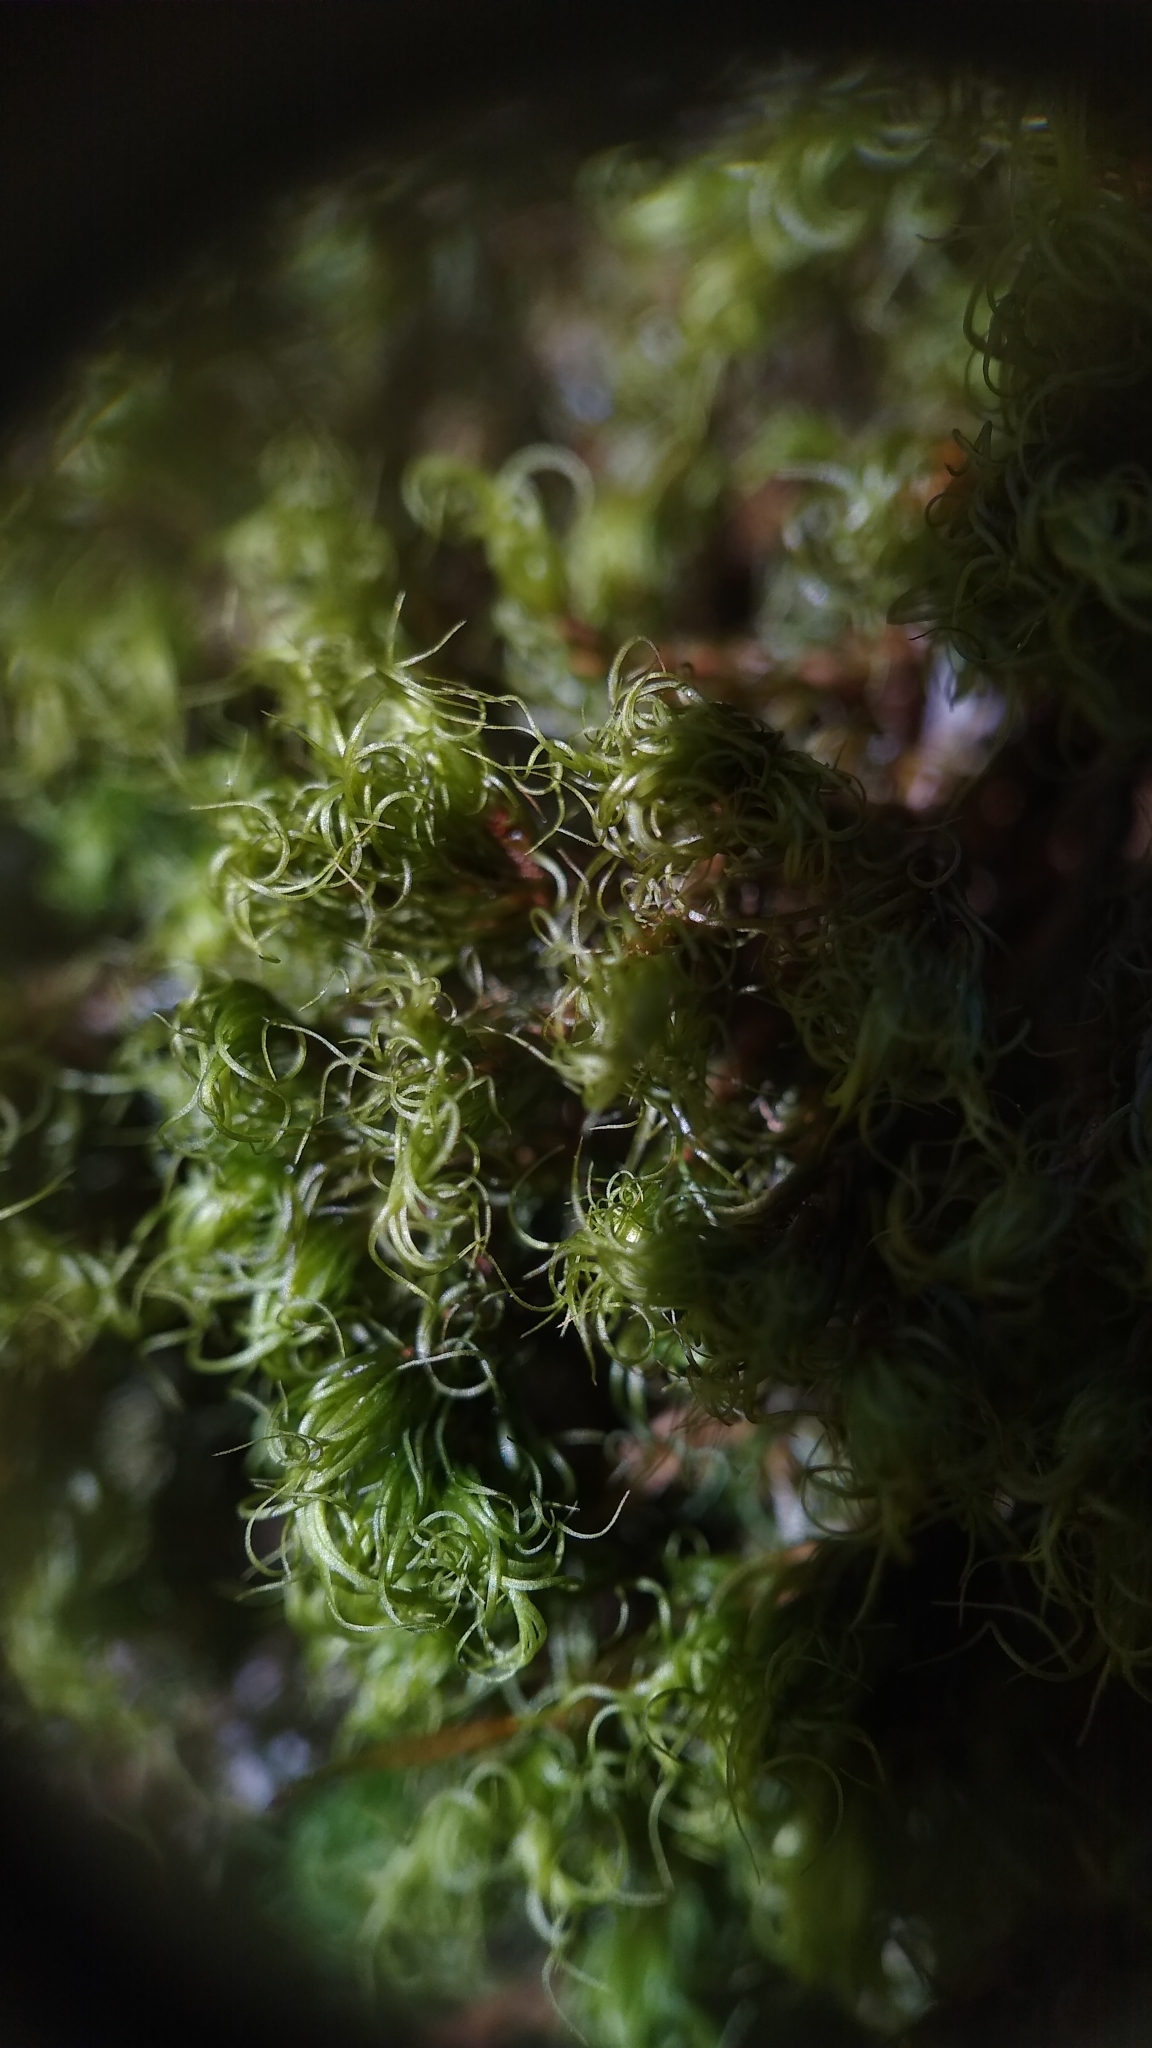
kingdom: Plantae
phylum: Bryophyta
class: Bryopsida
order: Dicranales
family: Dicranaceae
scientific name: Dicranaceae
